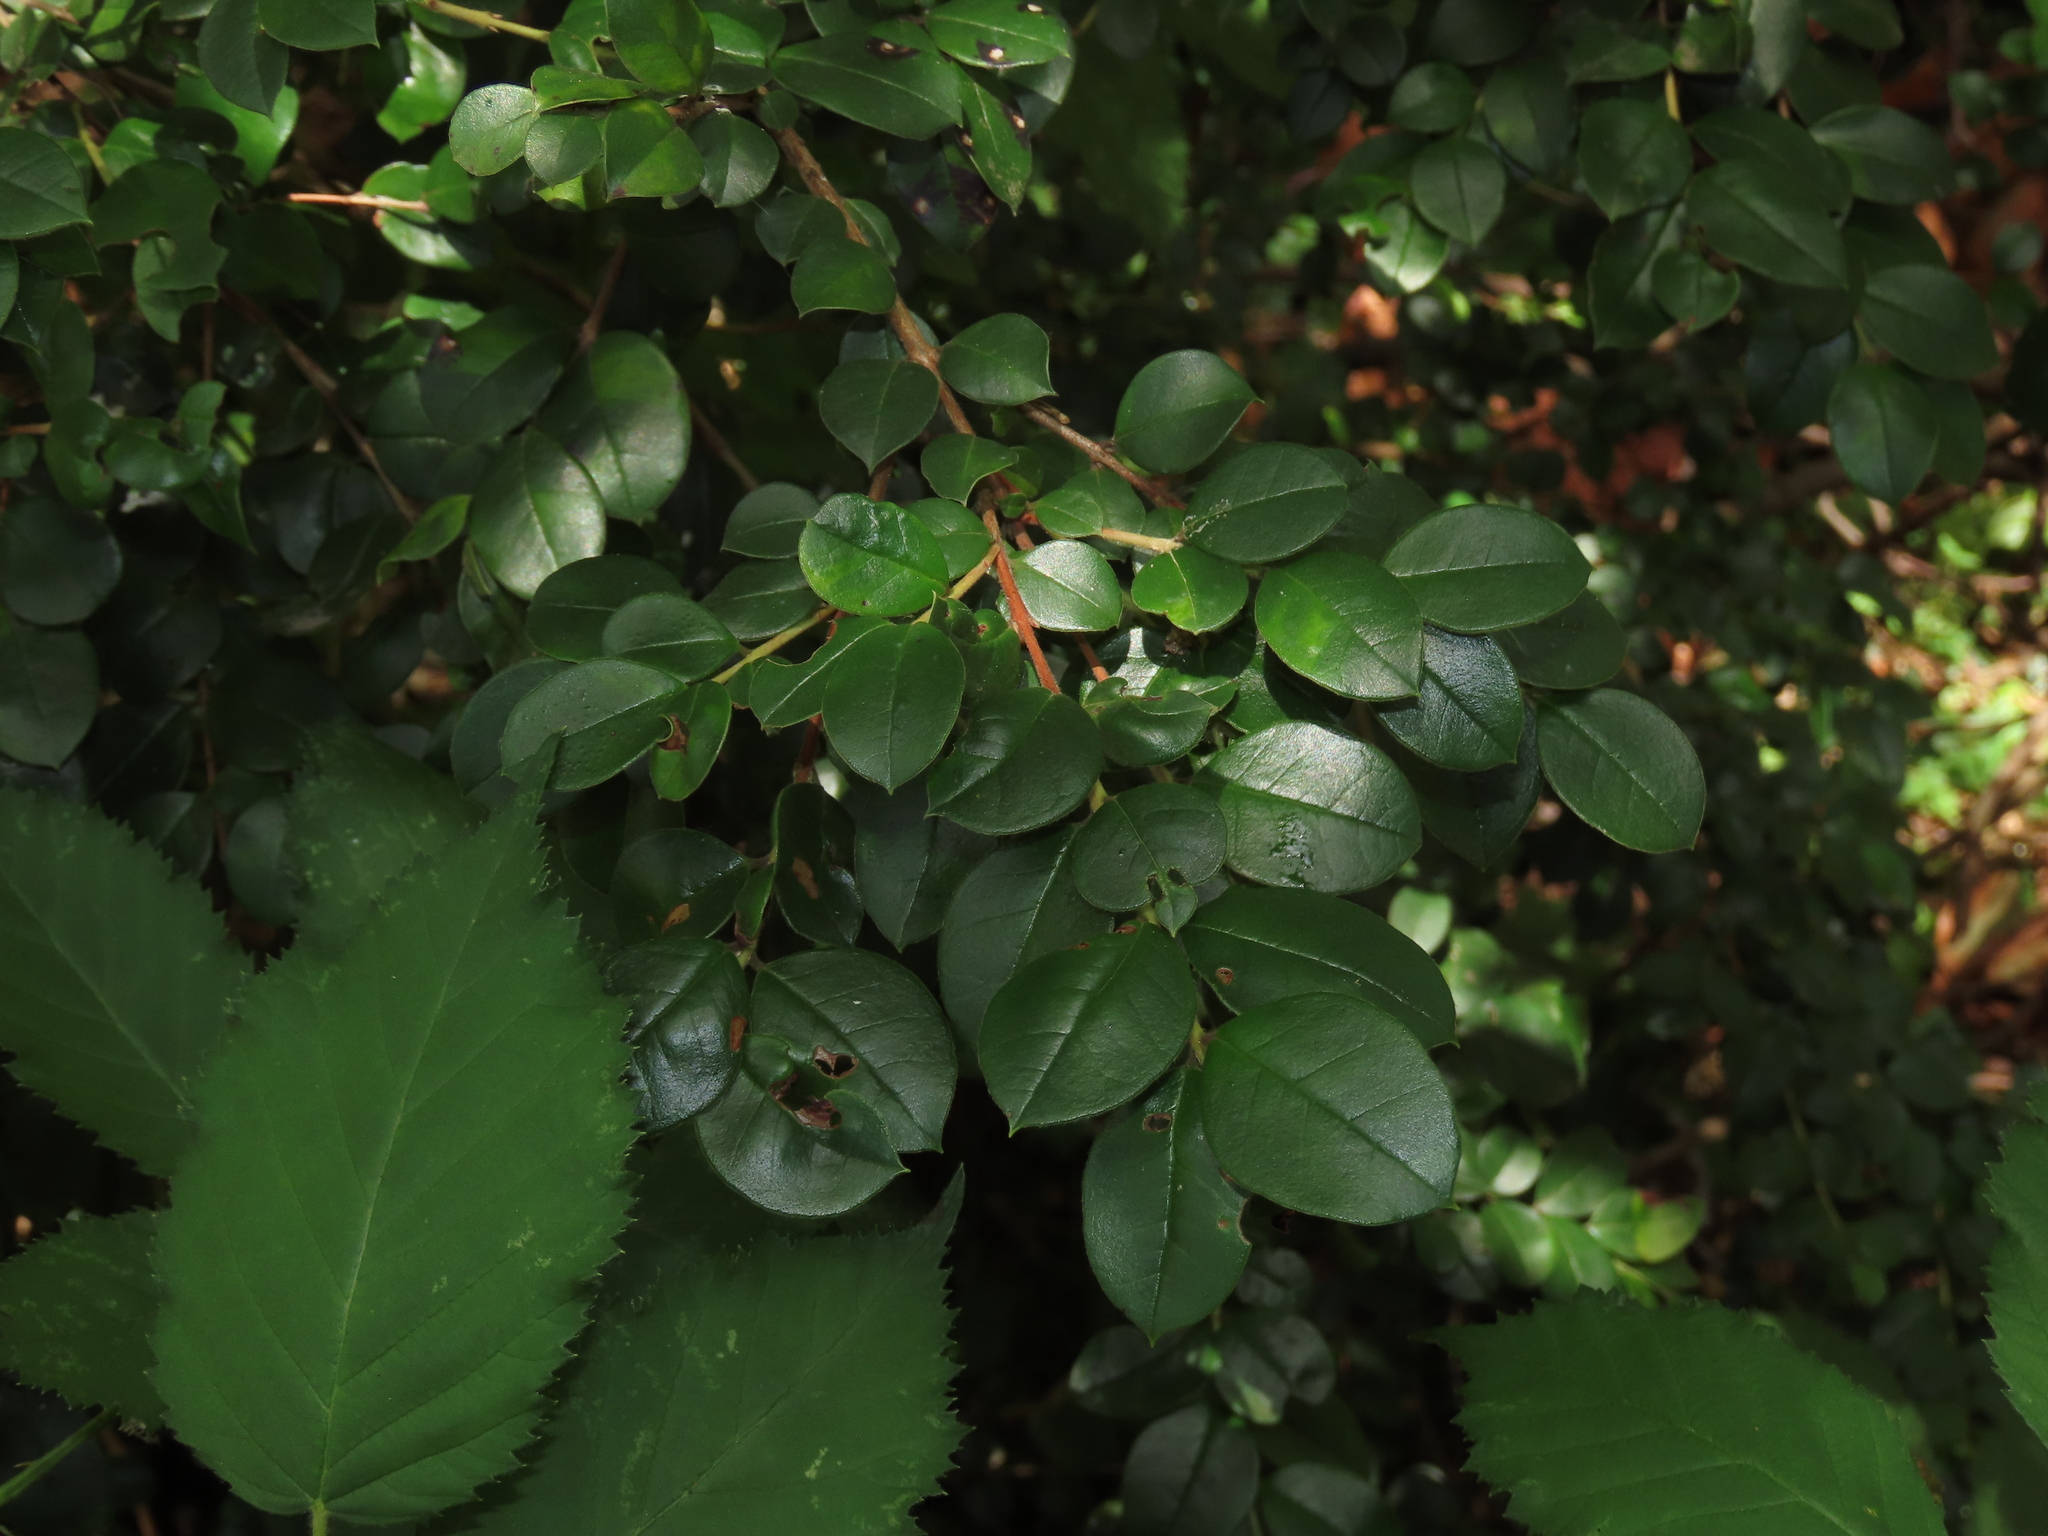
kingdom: Plantae
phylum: Tracheophyta
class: Magnoliopsida
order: Myrtales
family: Myrtaceae
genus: Luma
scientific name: Luma apiculata
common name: Chilean myrtle
